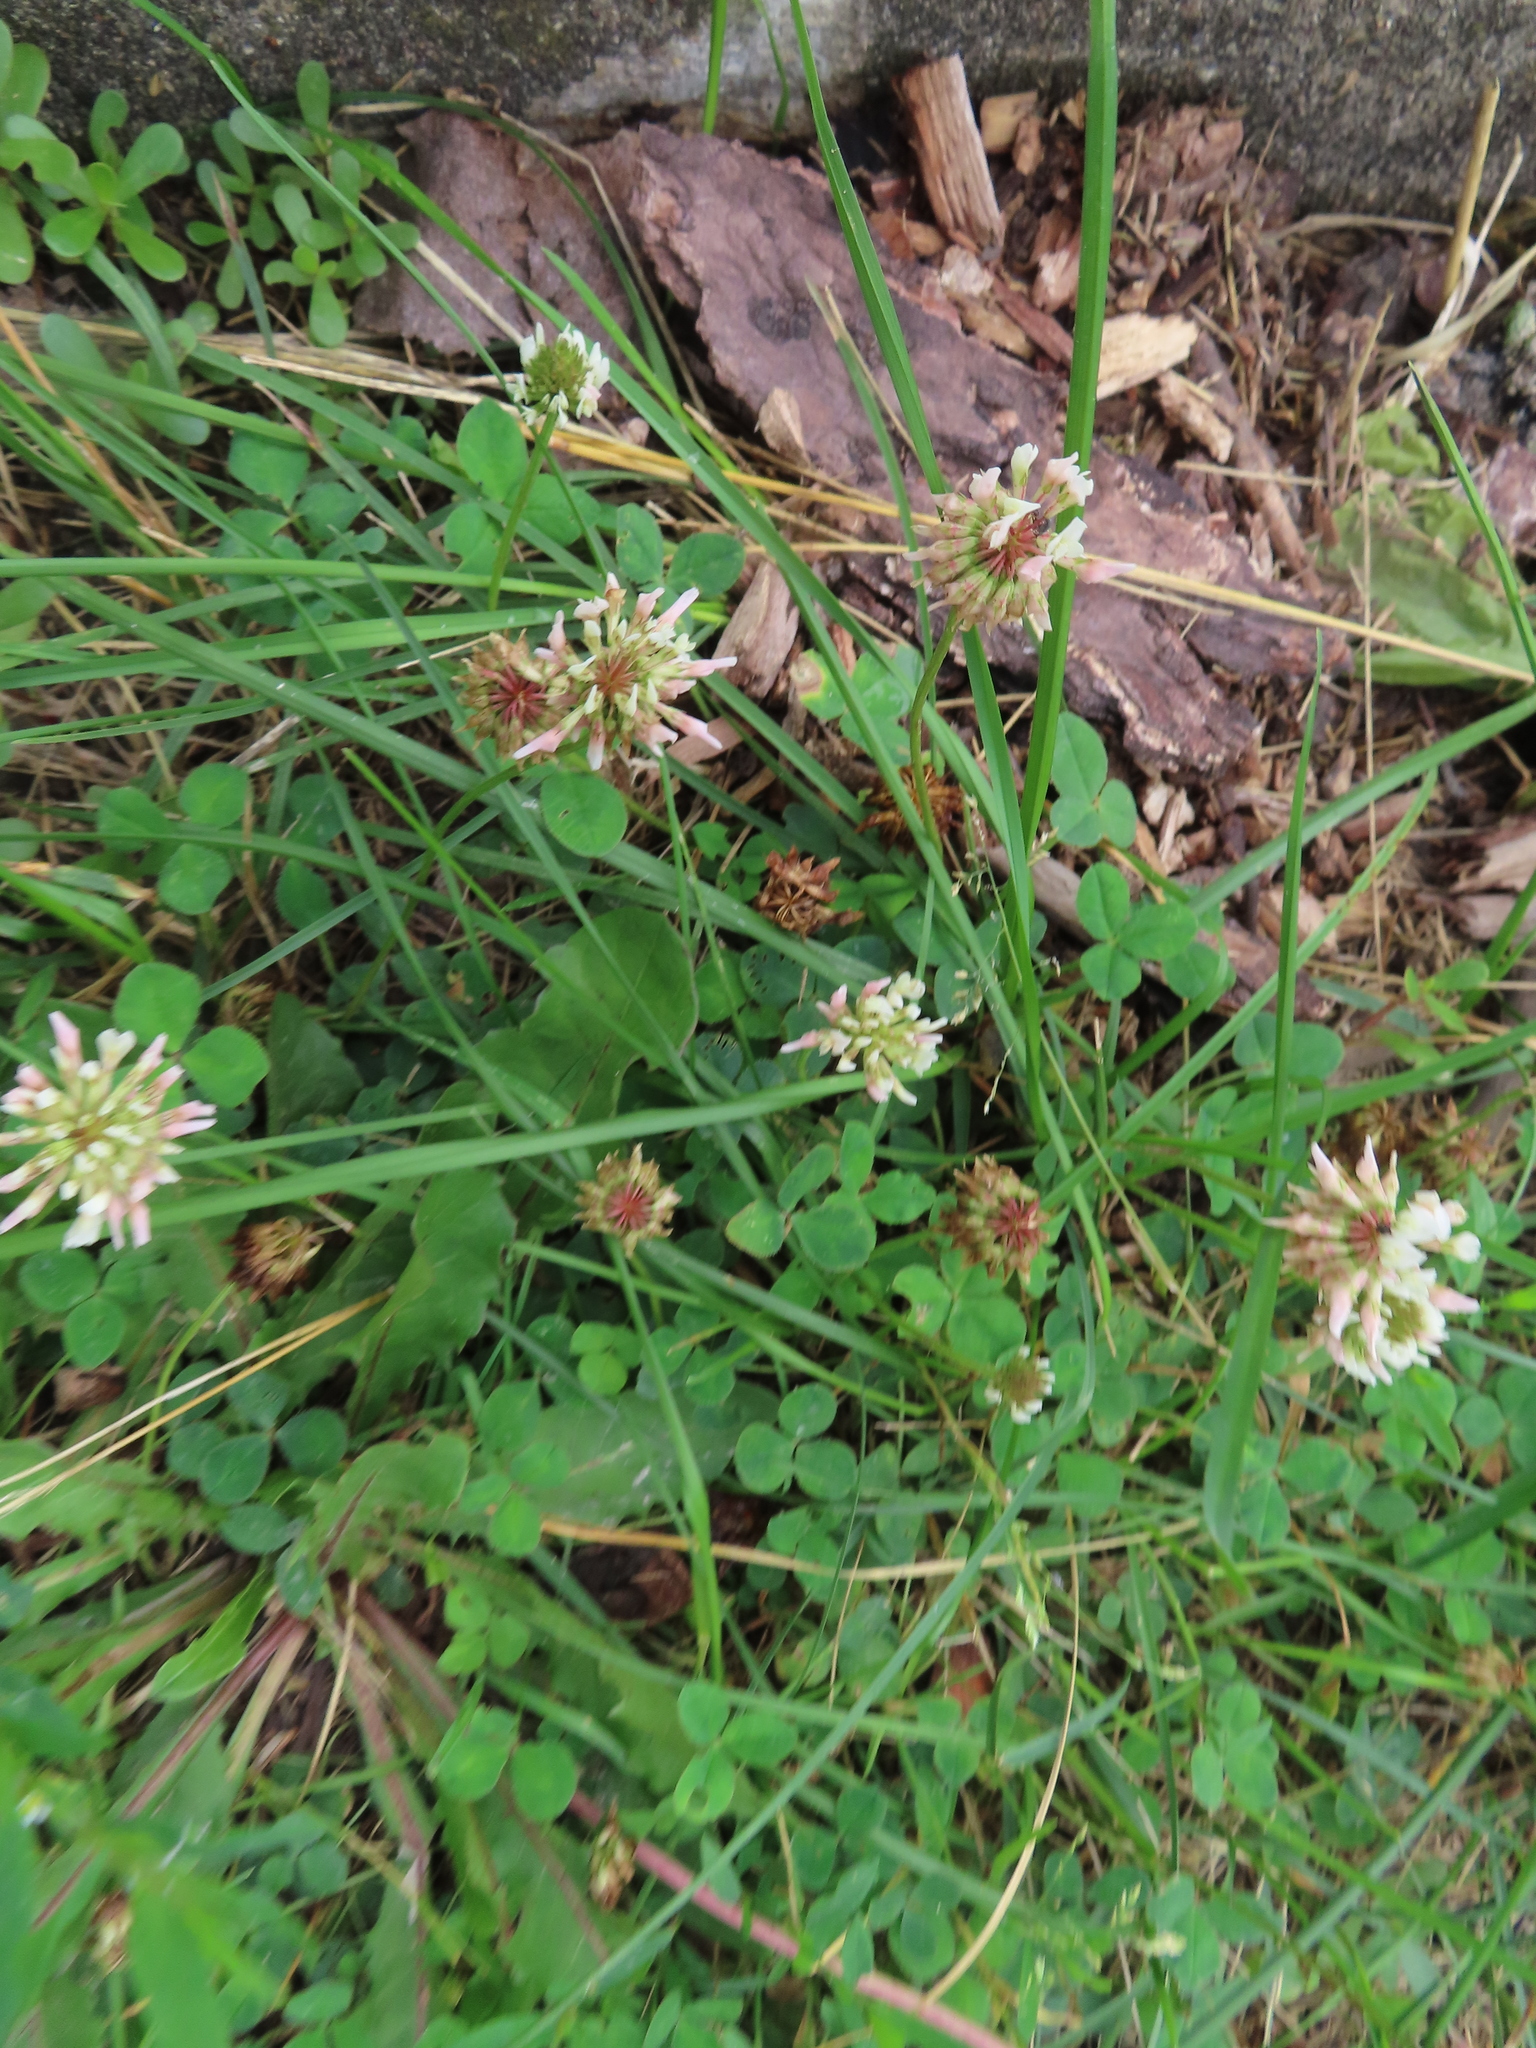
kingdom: Plantae
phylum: Tracheophyta
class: Magnoliopsida
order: Fabales
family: Fabaceae
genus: Trifolium
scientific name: Trifolium repens
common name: White clover
